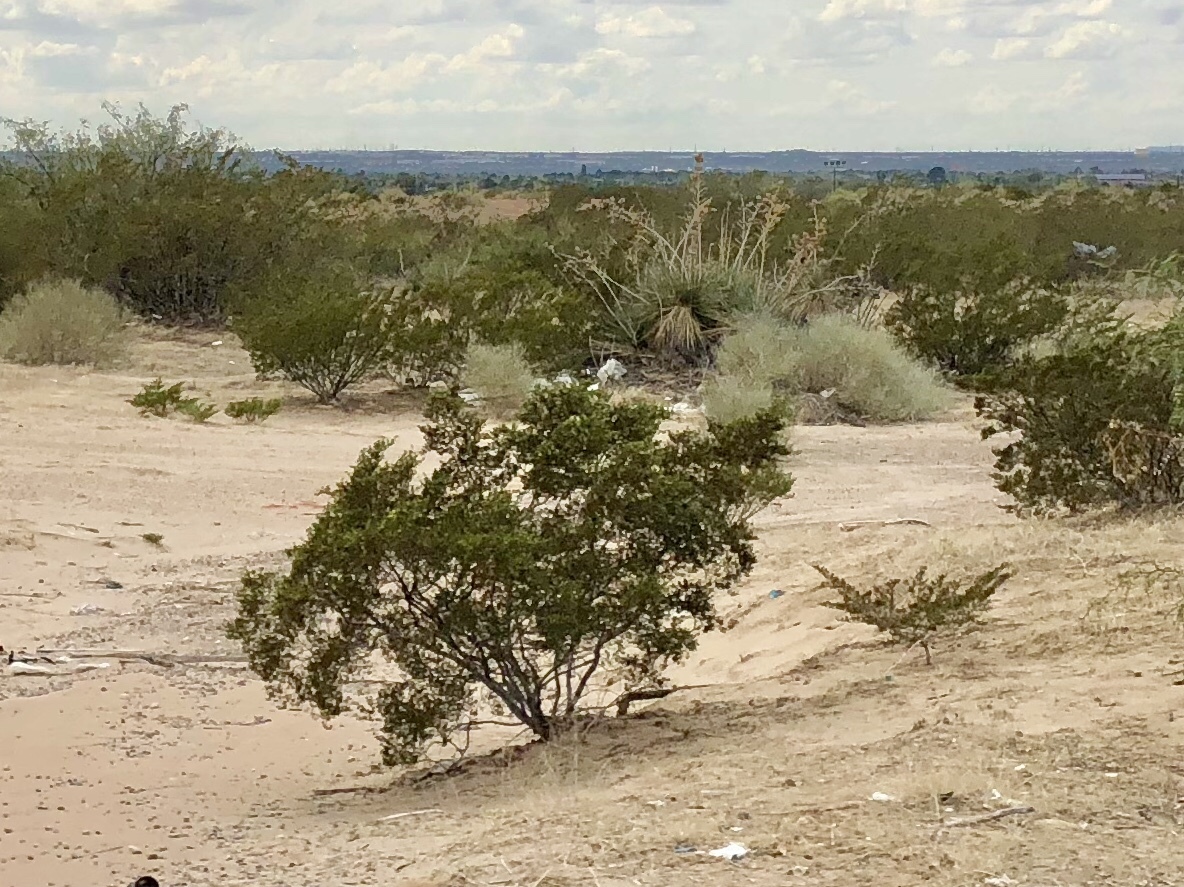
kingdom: Plantae
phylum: Tracheophyta
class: Magnoliopsida
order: Zygophyllales
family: Zygophyllaceae
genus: Larrea
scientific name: Larrea tridentata
